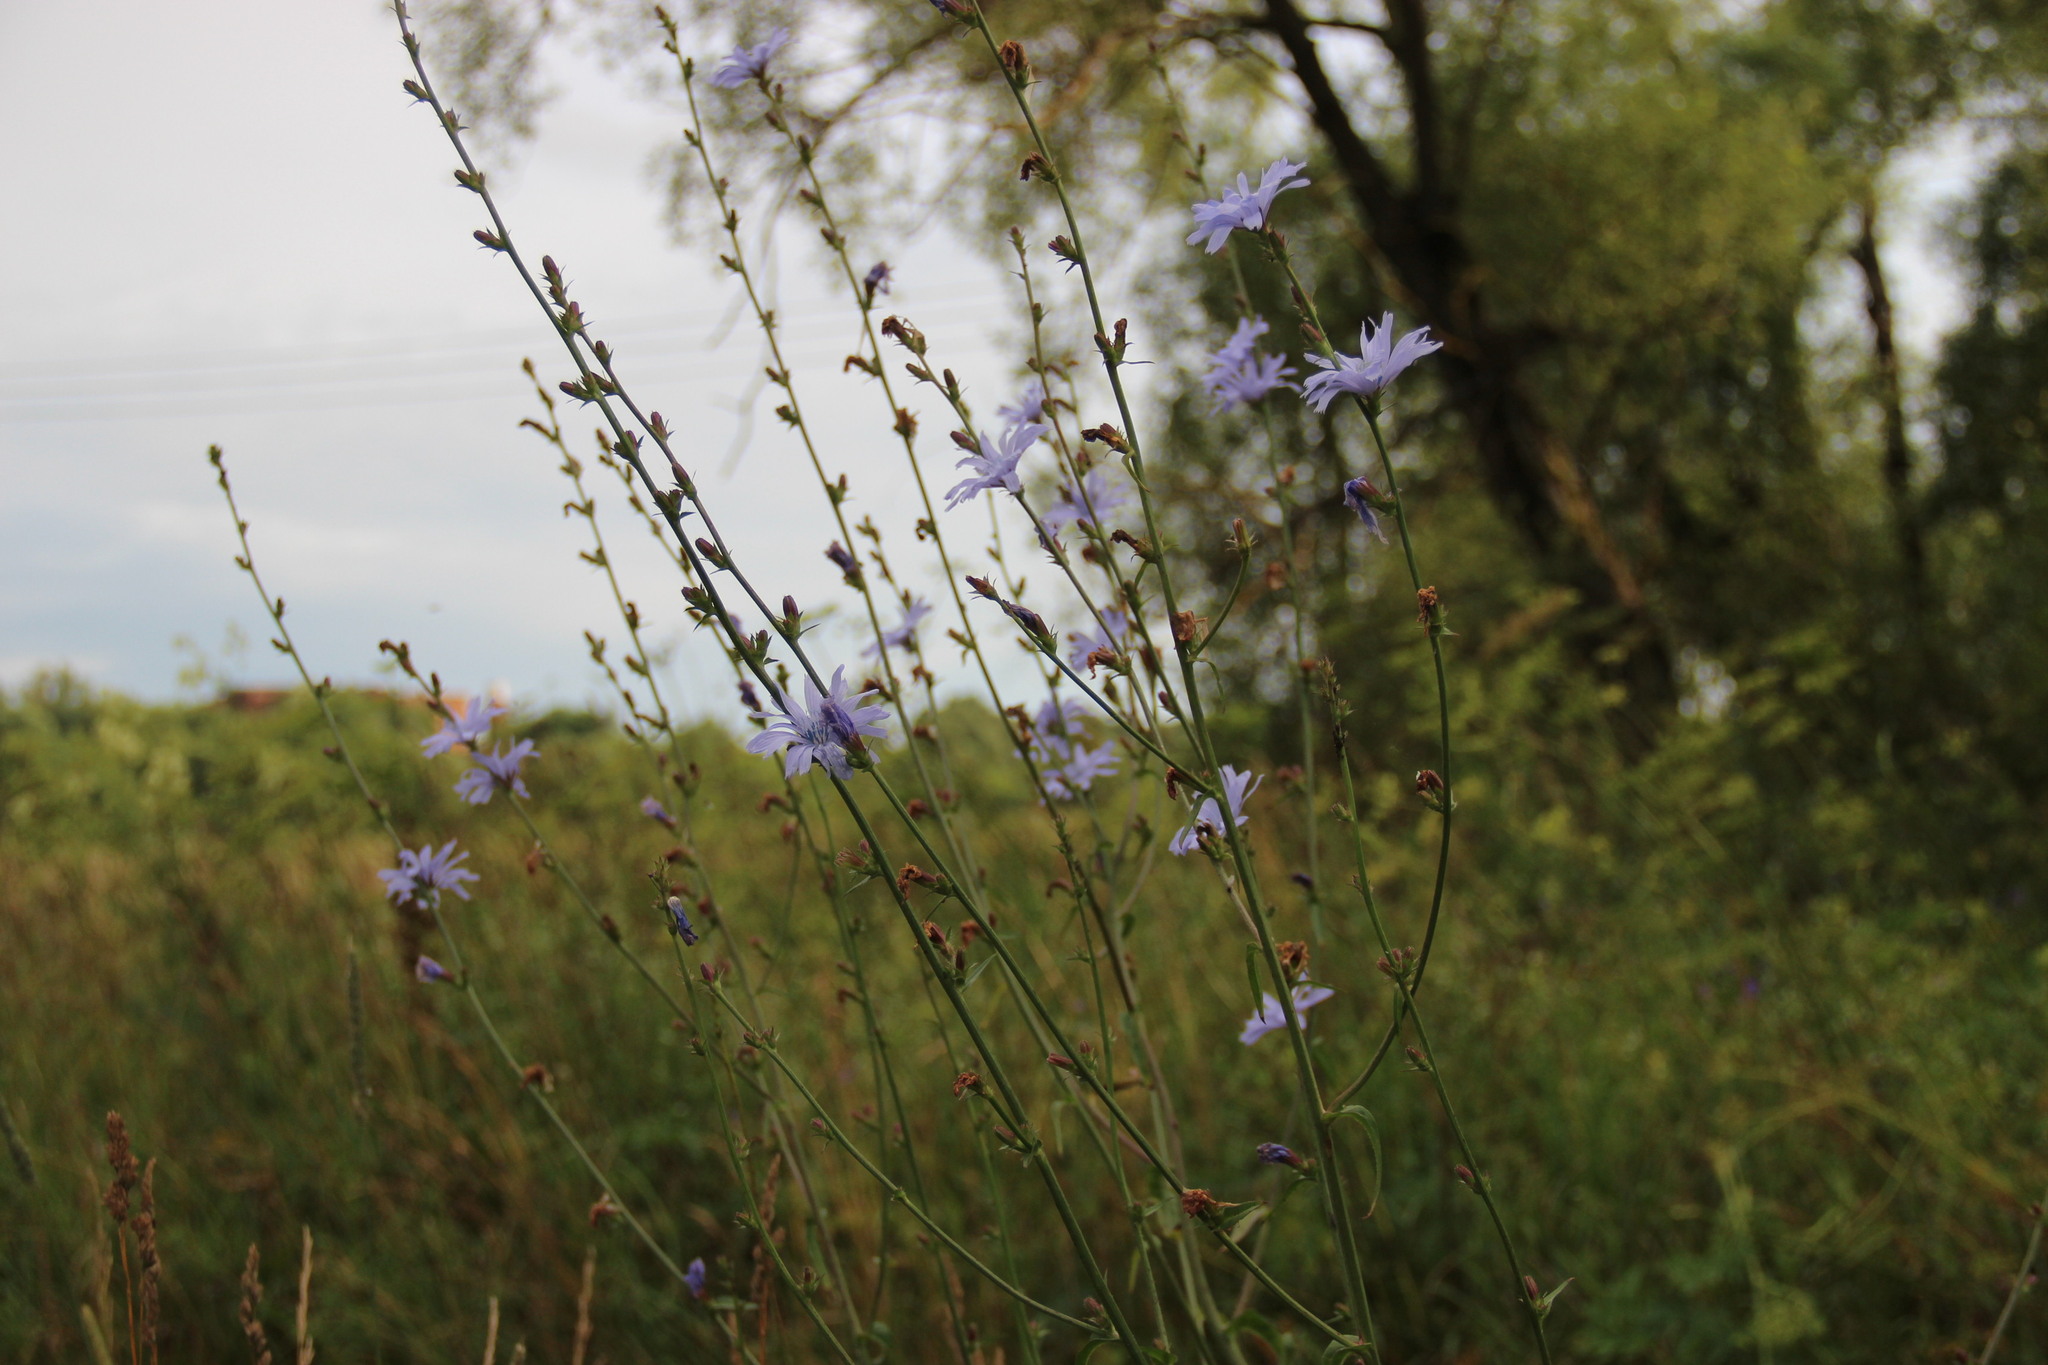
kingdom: Plantae
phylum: Tracheophyta
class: Magnoliopsida
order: Asterales
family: Asteraceae
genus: Cichorium
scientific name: Cichorium intybus
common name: Chicory
